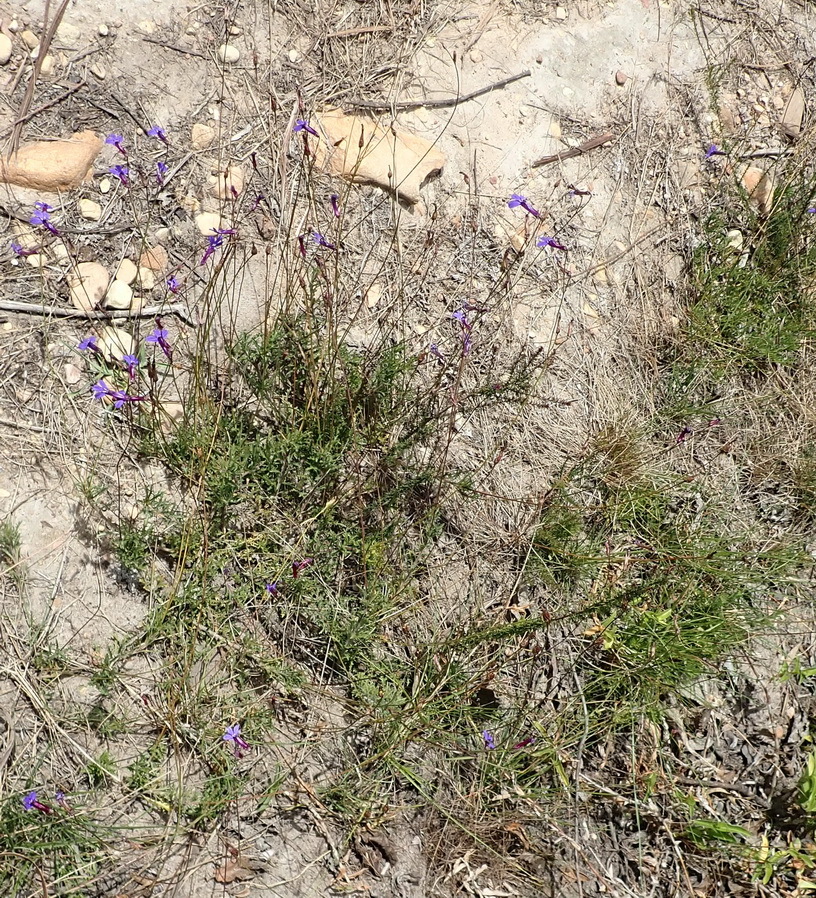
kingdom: Plantae
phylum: Tracheophyta
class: Magnoliopsida
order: Asterales
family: Campanulaceae
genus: Lobelia
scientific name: Lobelia tomentosa
